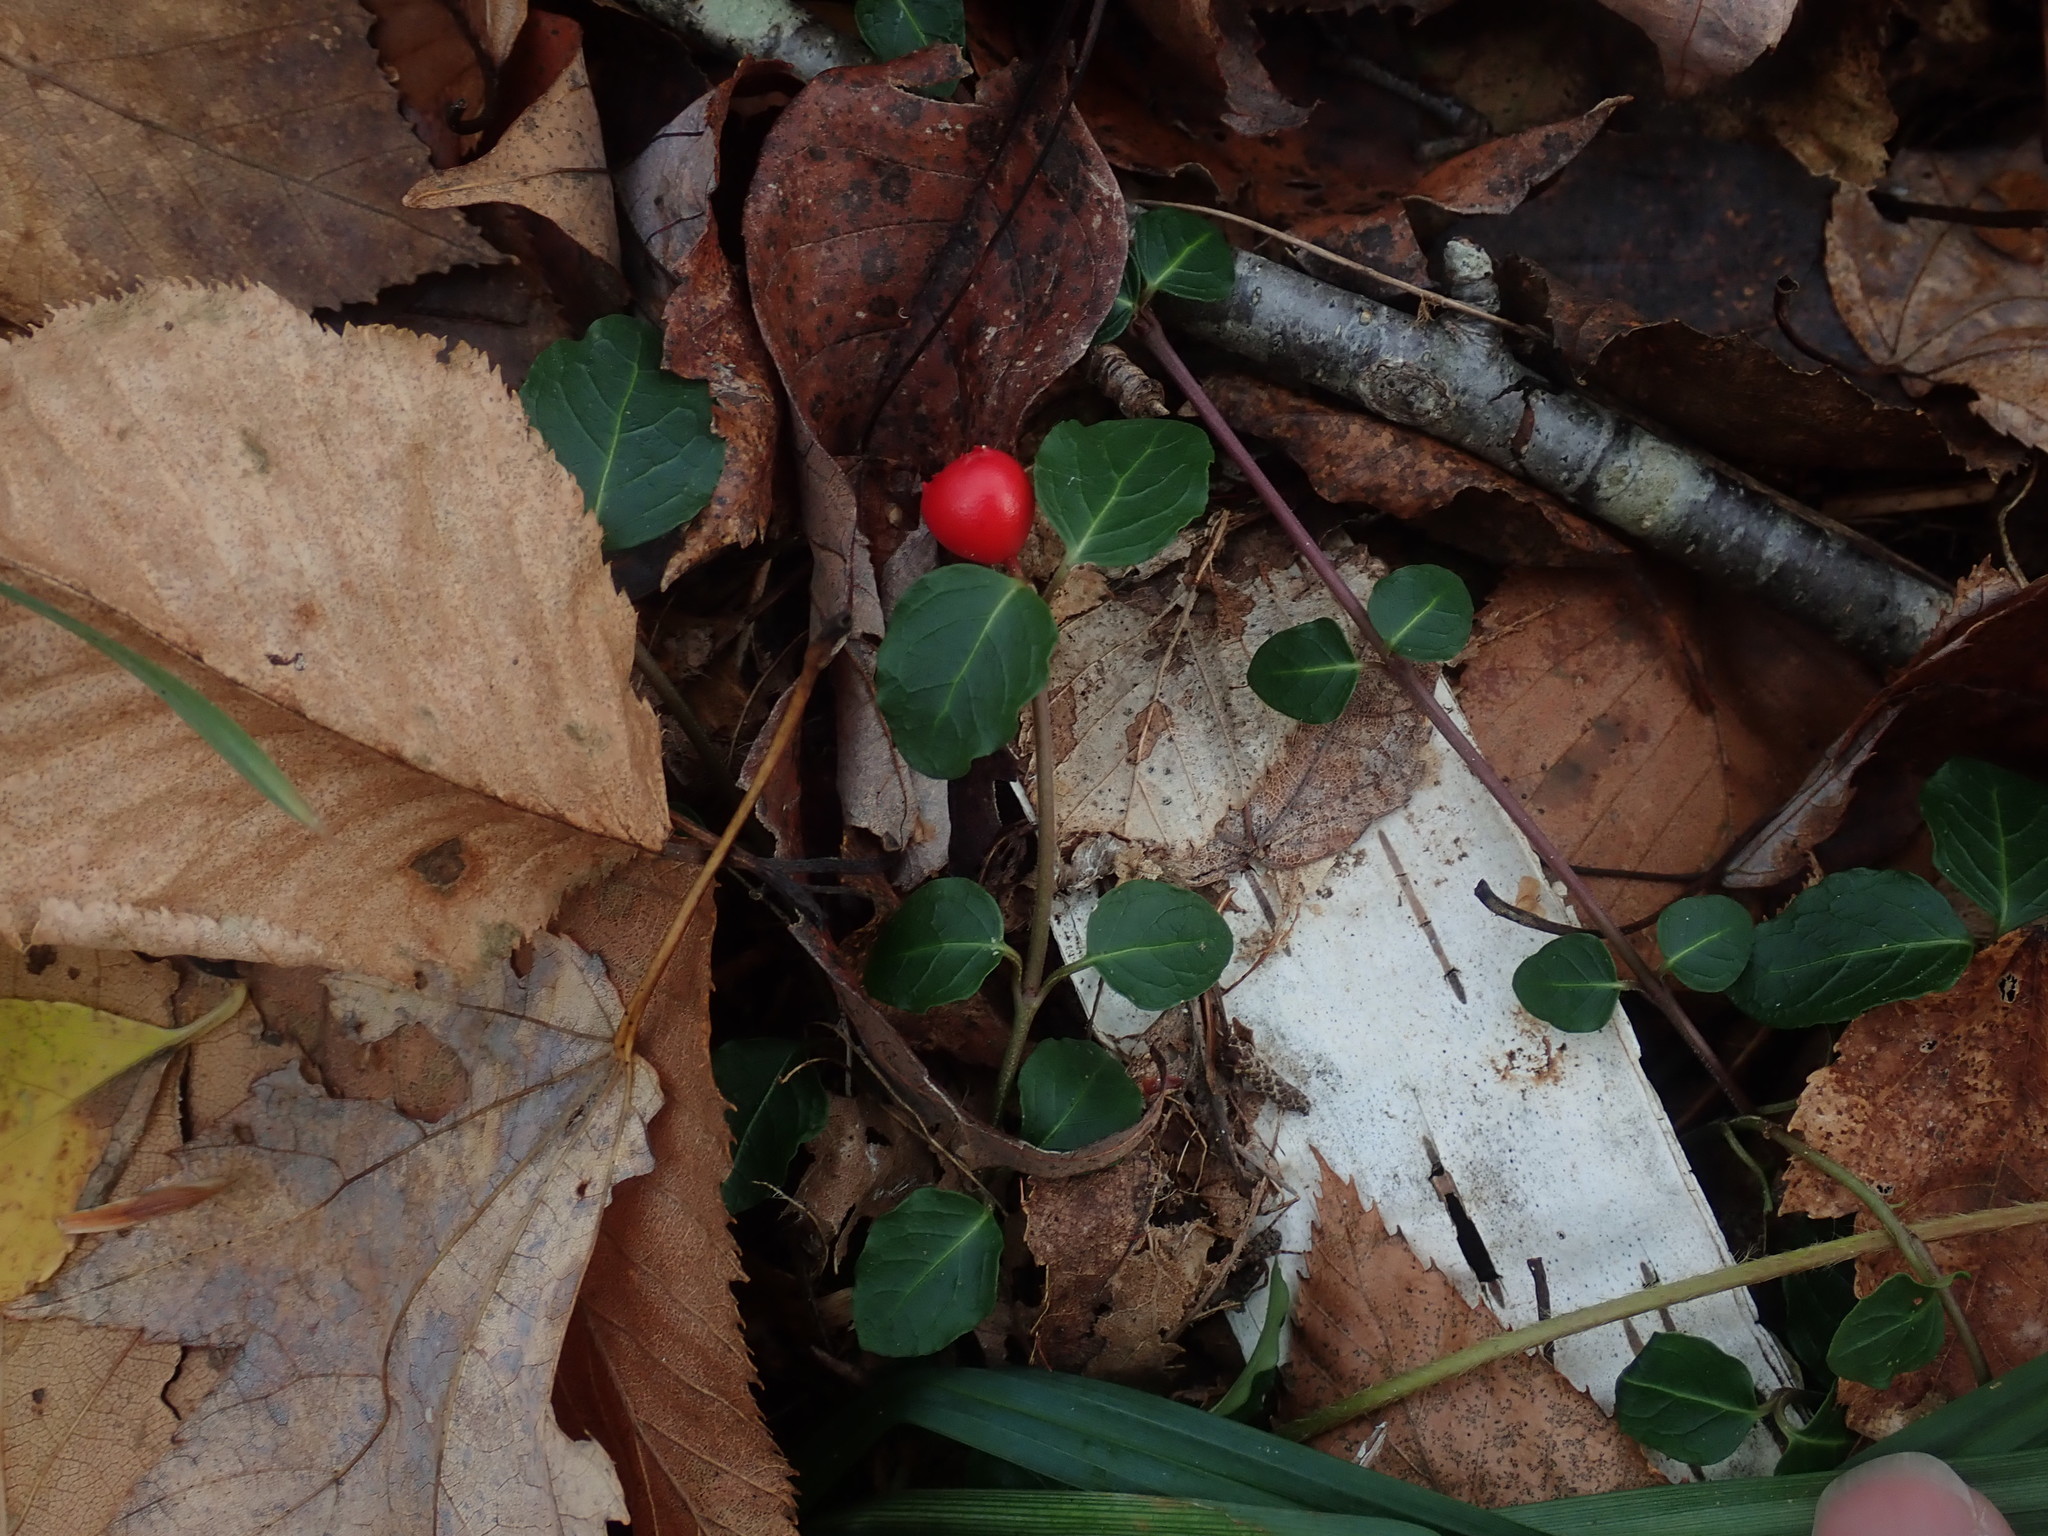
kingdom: Plantae
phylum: Tracheophyta
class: Magnoliopsida
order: Gentianales
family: Rubiaceae
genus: Mitchella
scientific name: Mitchella repens
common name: Partridge-berry
